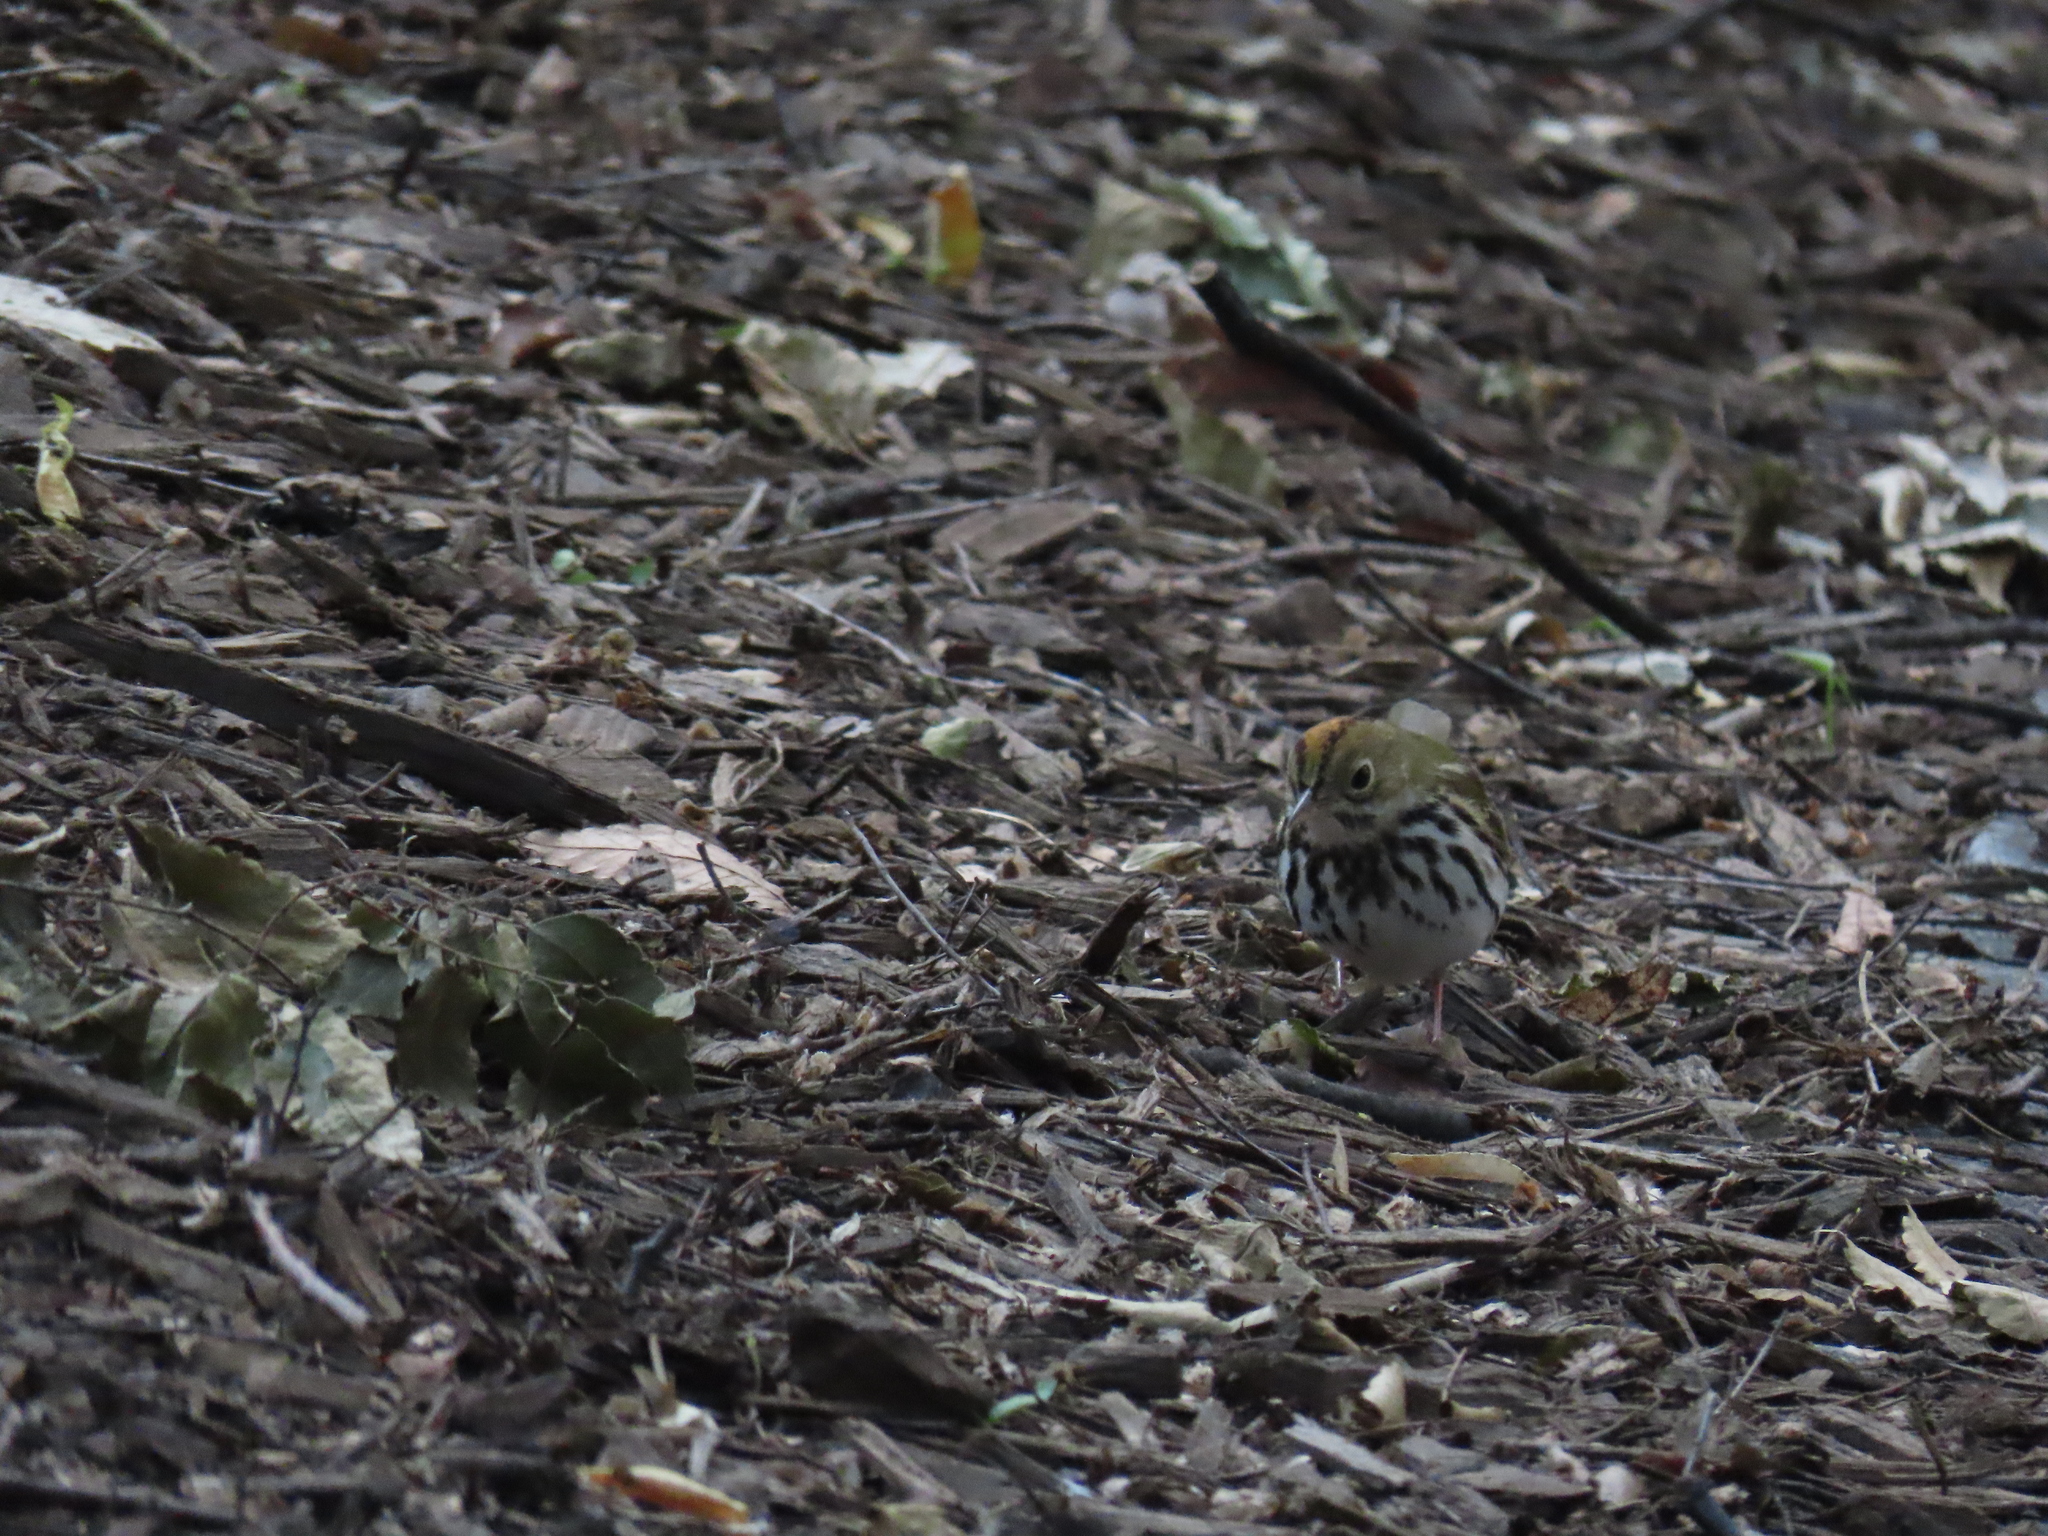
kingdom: Animalia
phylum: Chordata
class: Aves
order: Passeriformes
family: Parulidae
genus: Seiurus
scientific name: Seiurus aurocapilla
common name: Ovenbird
